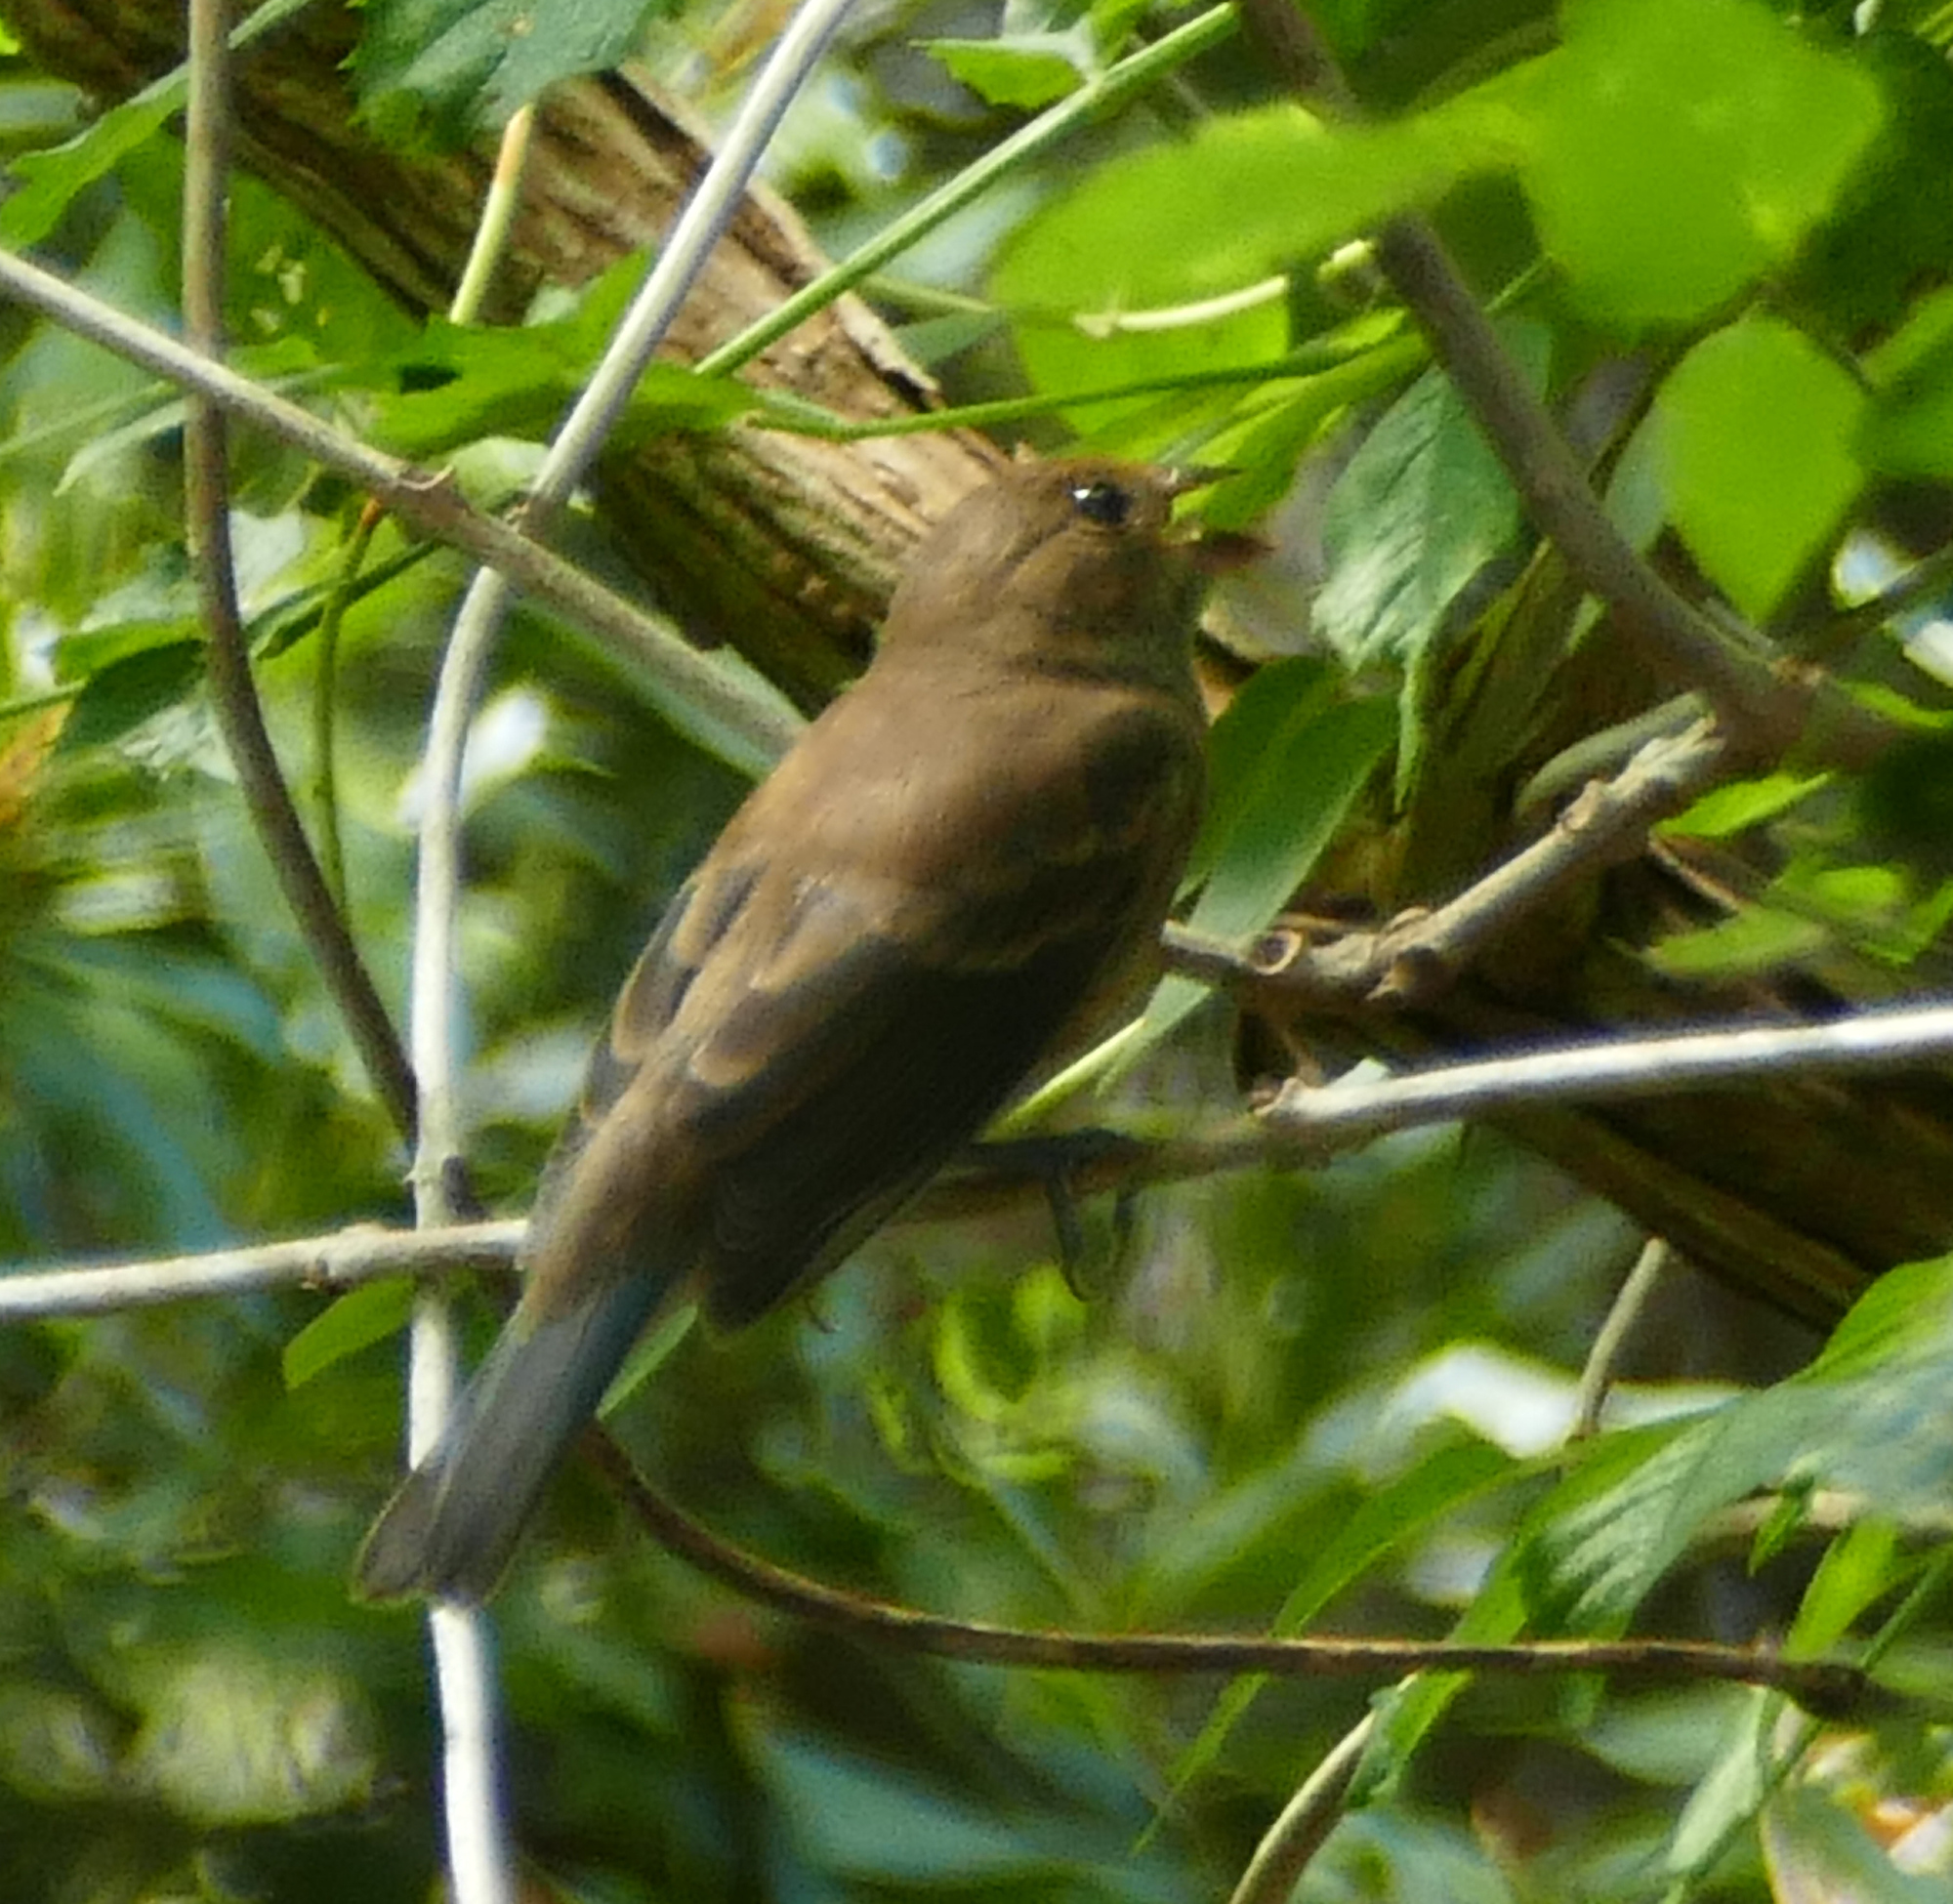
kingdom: Animalia
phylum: Chordata
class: Aves
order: Passeriformes
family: Cardinalidae
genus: Passerina
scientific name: Passerina cyanea
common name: Indigo bunting
